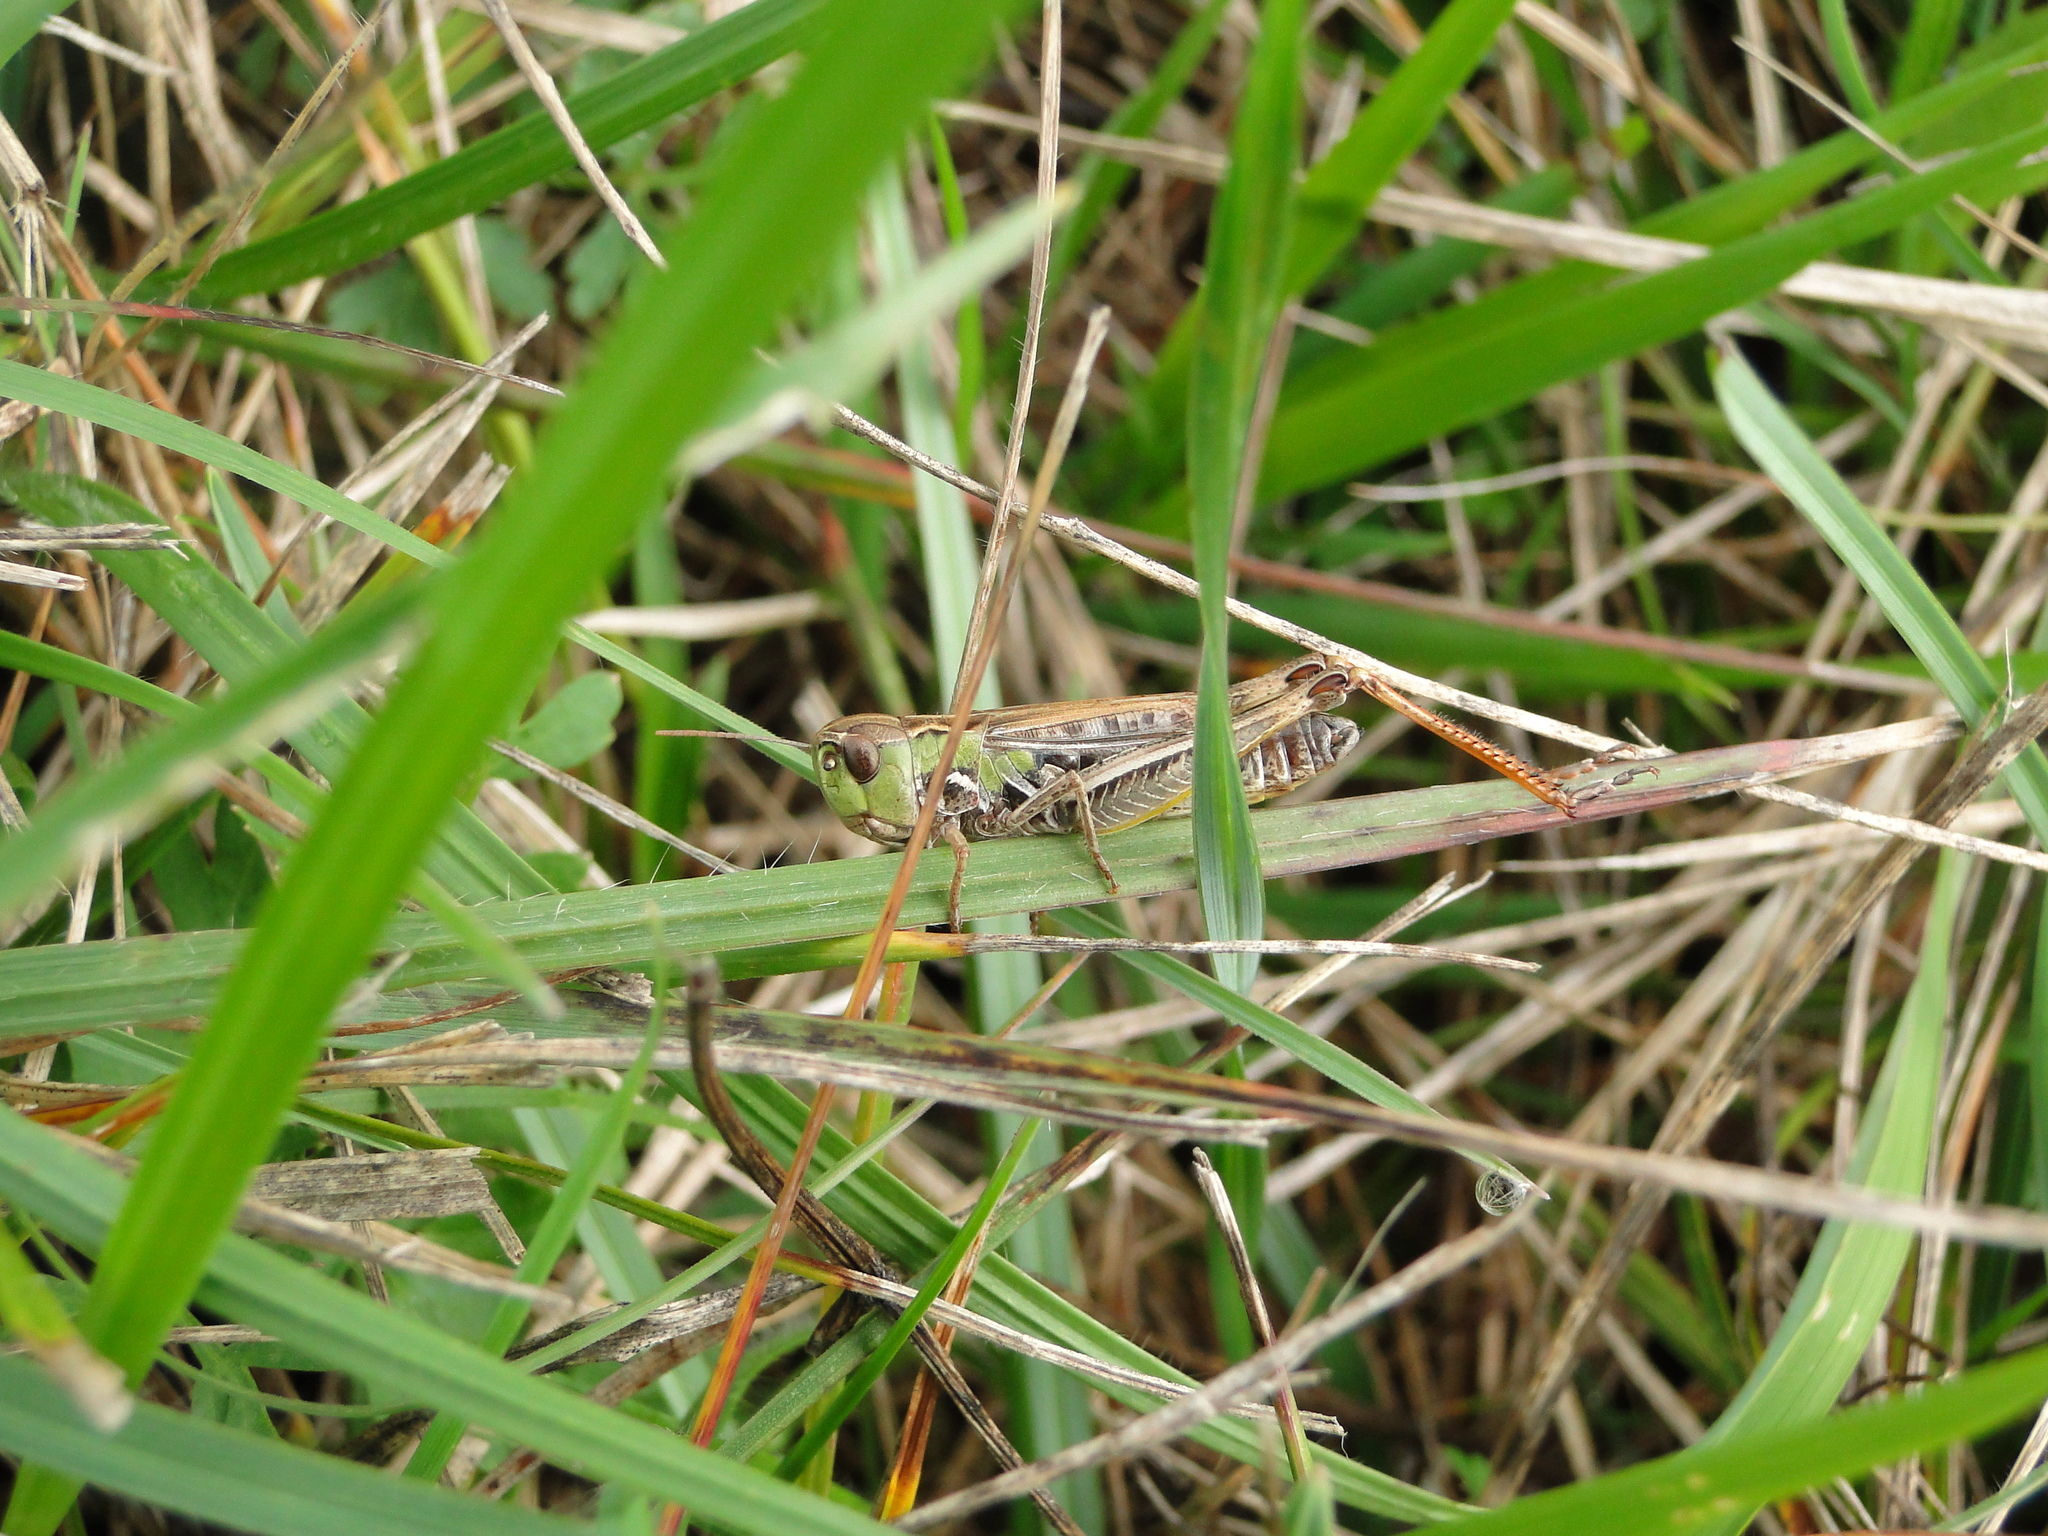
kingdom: Animalia
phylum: Arthropoda
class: Insecta
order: Orthoptera
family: Acrididae
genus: Stenobothrus
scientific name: Stenobothrus nigromaculatus
